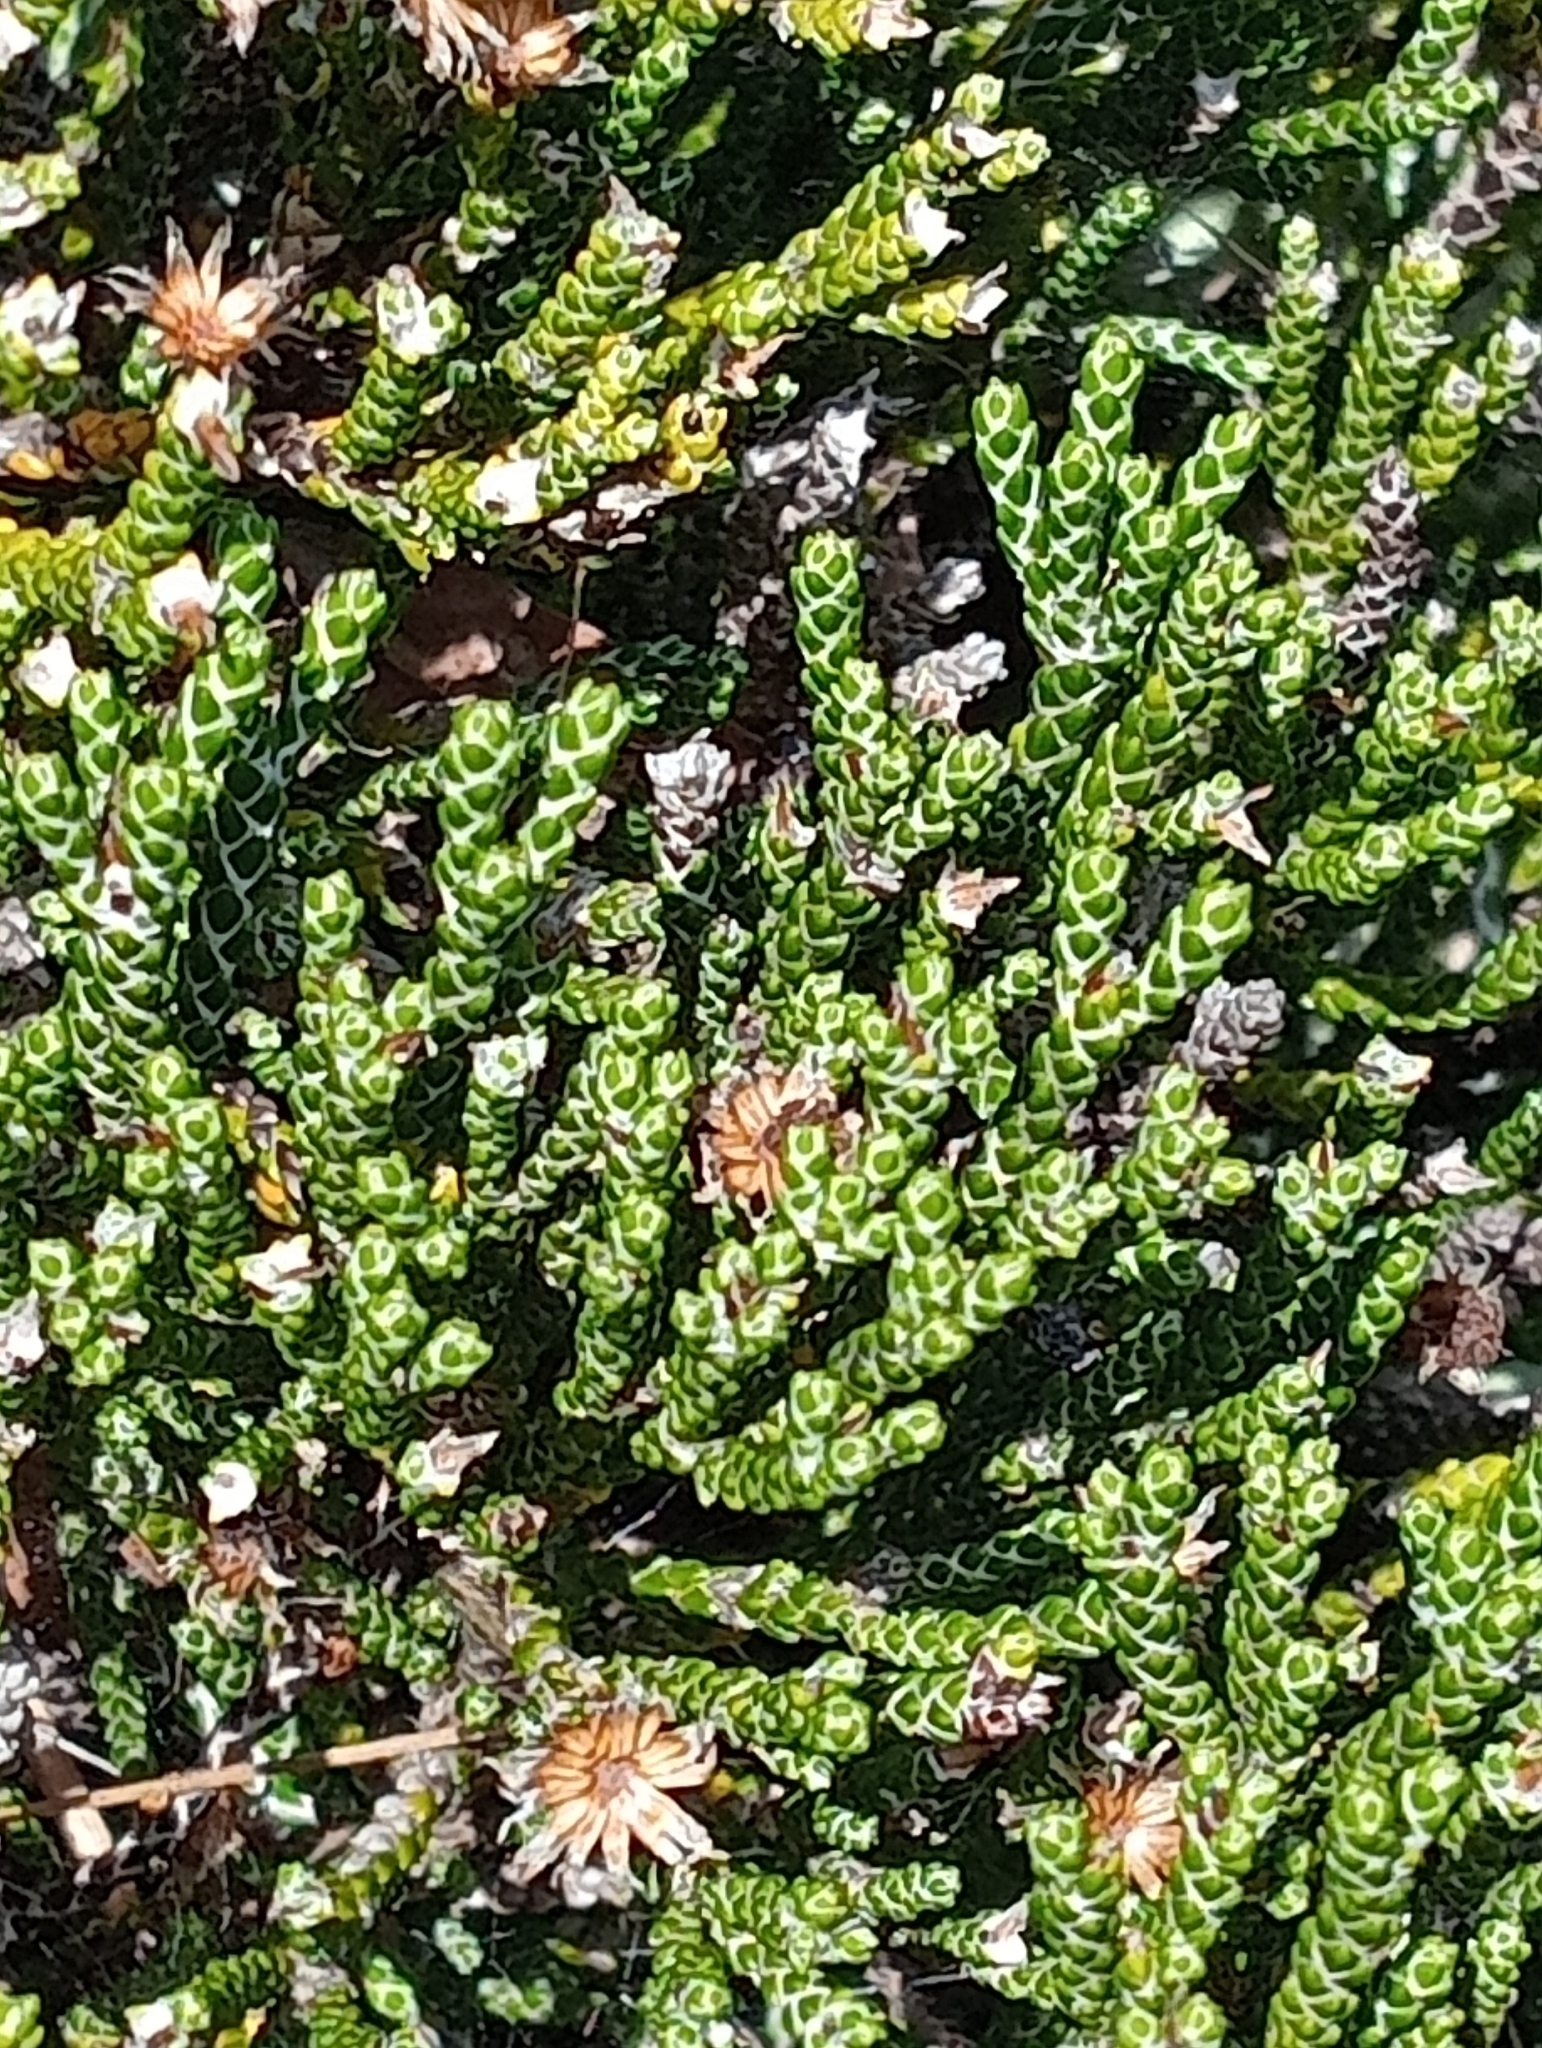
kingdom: Plantae
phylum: Tracheophyta
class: Magnoliopsida
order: Asterales
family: Asteraceae
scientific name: Asteraceae
